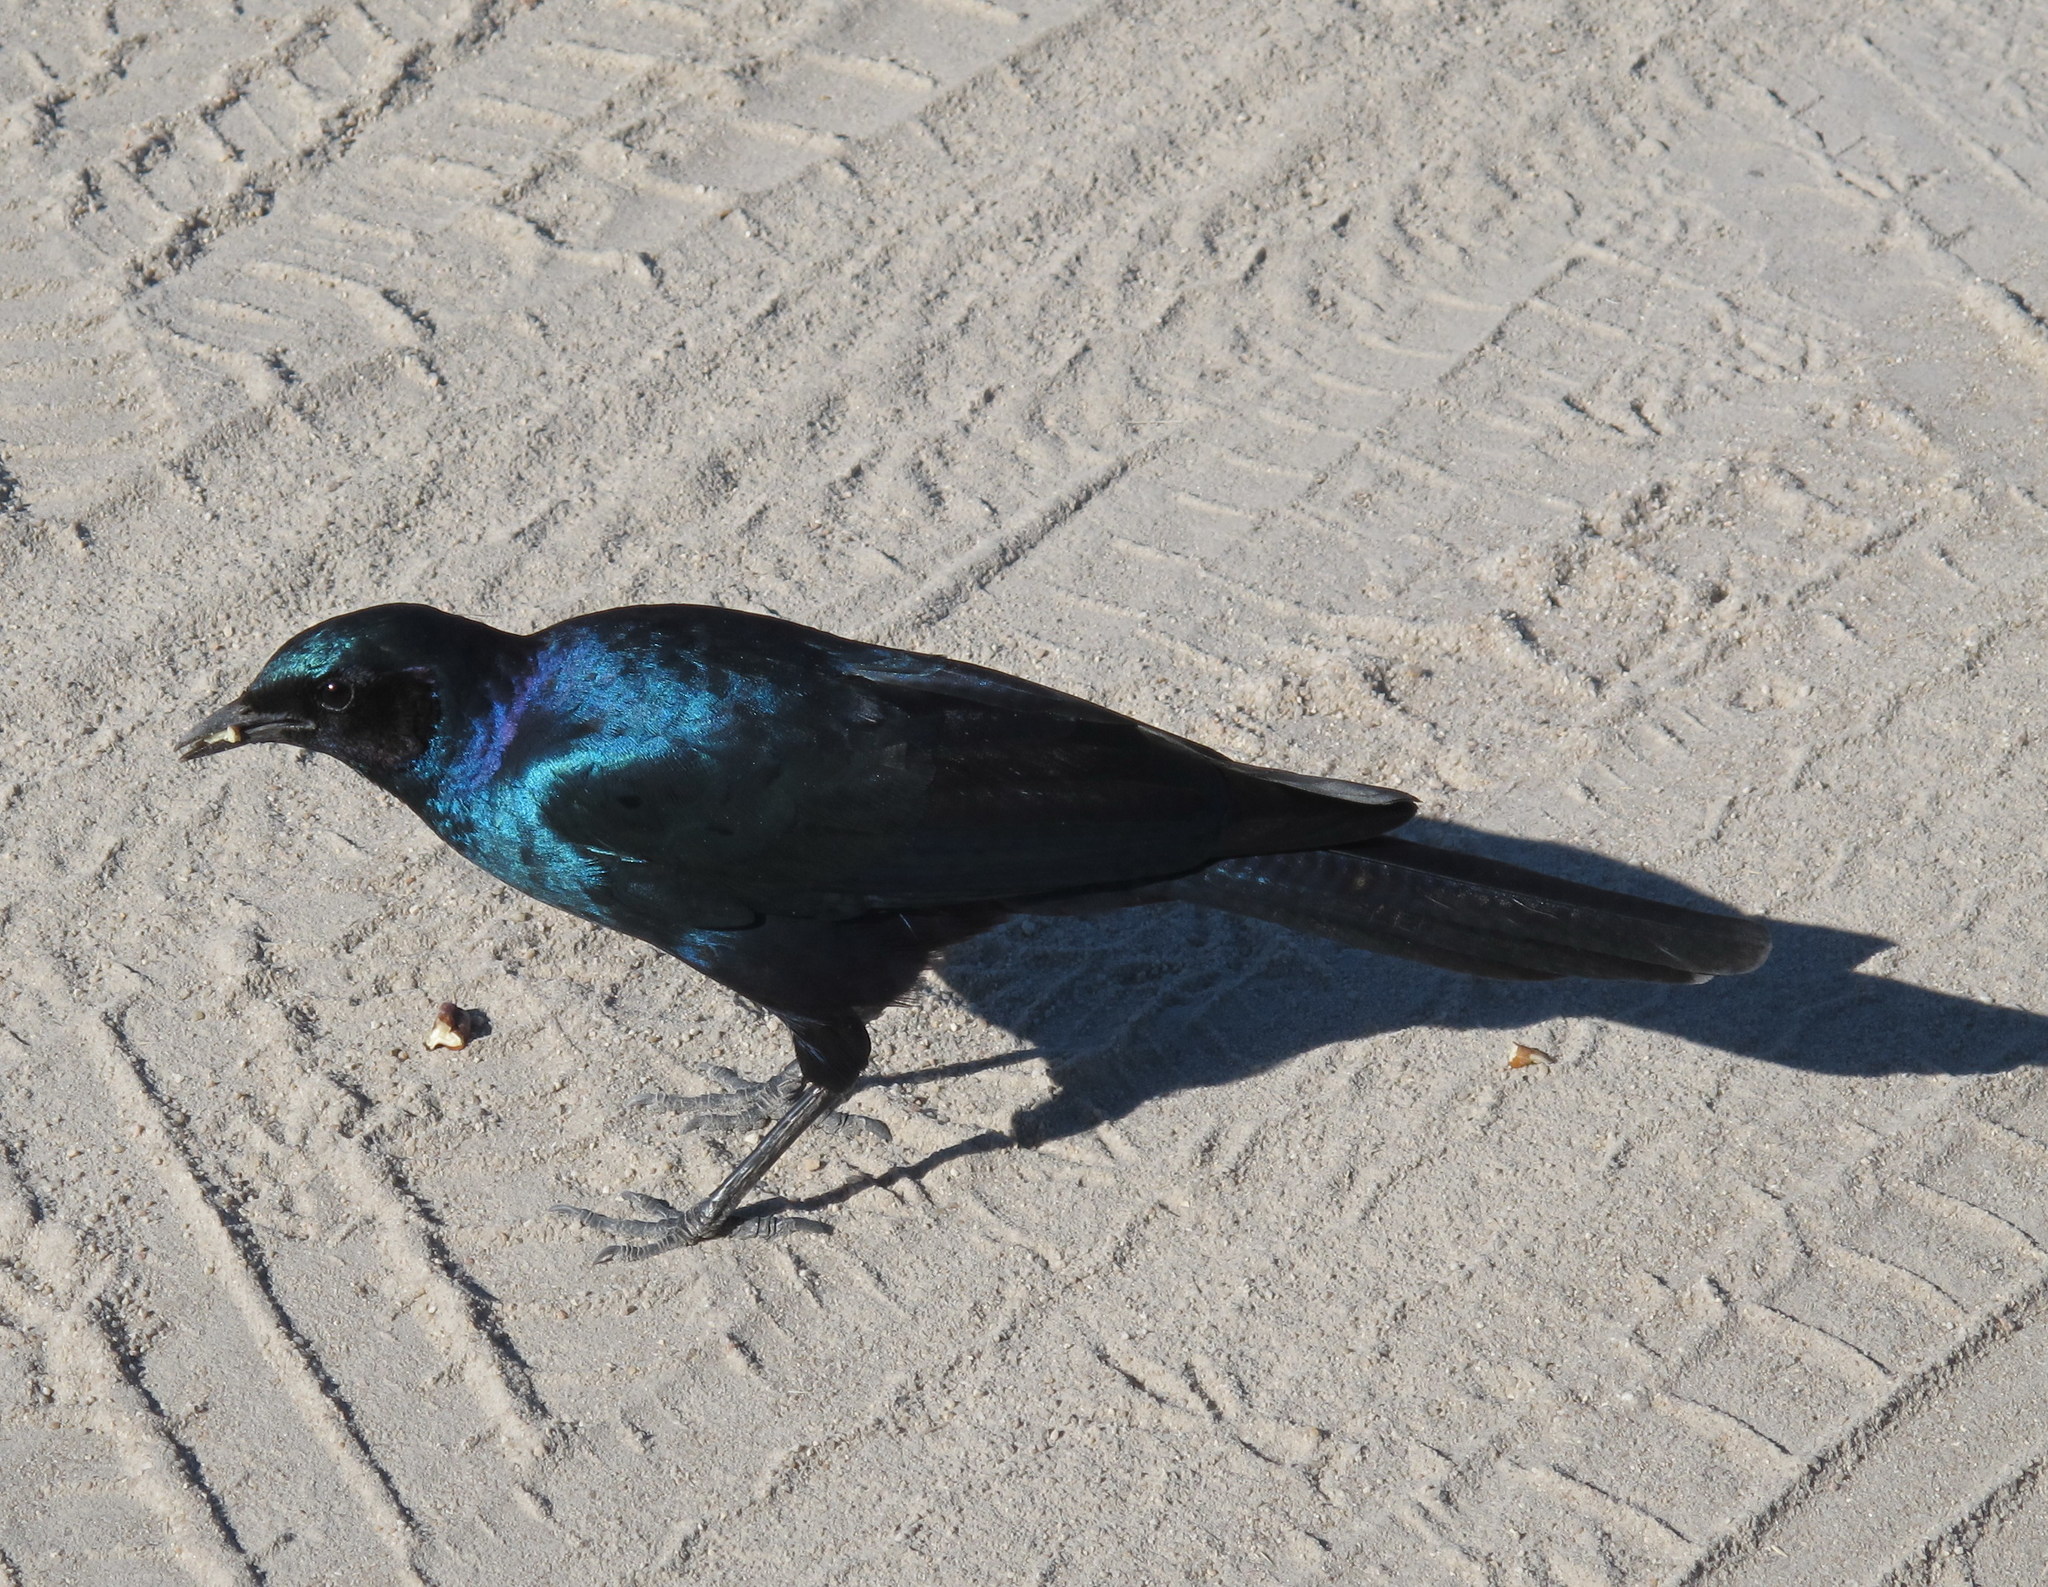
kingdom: Animalia
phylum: Chordata
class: Aves
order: Passeriformes
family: Sturnidae
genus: Lamprotornis
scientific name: Lamprotornis australis
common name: Burchell's starling
